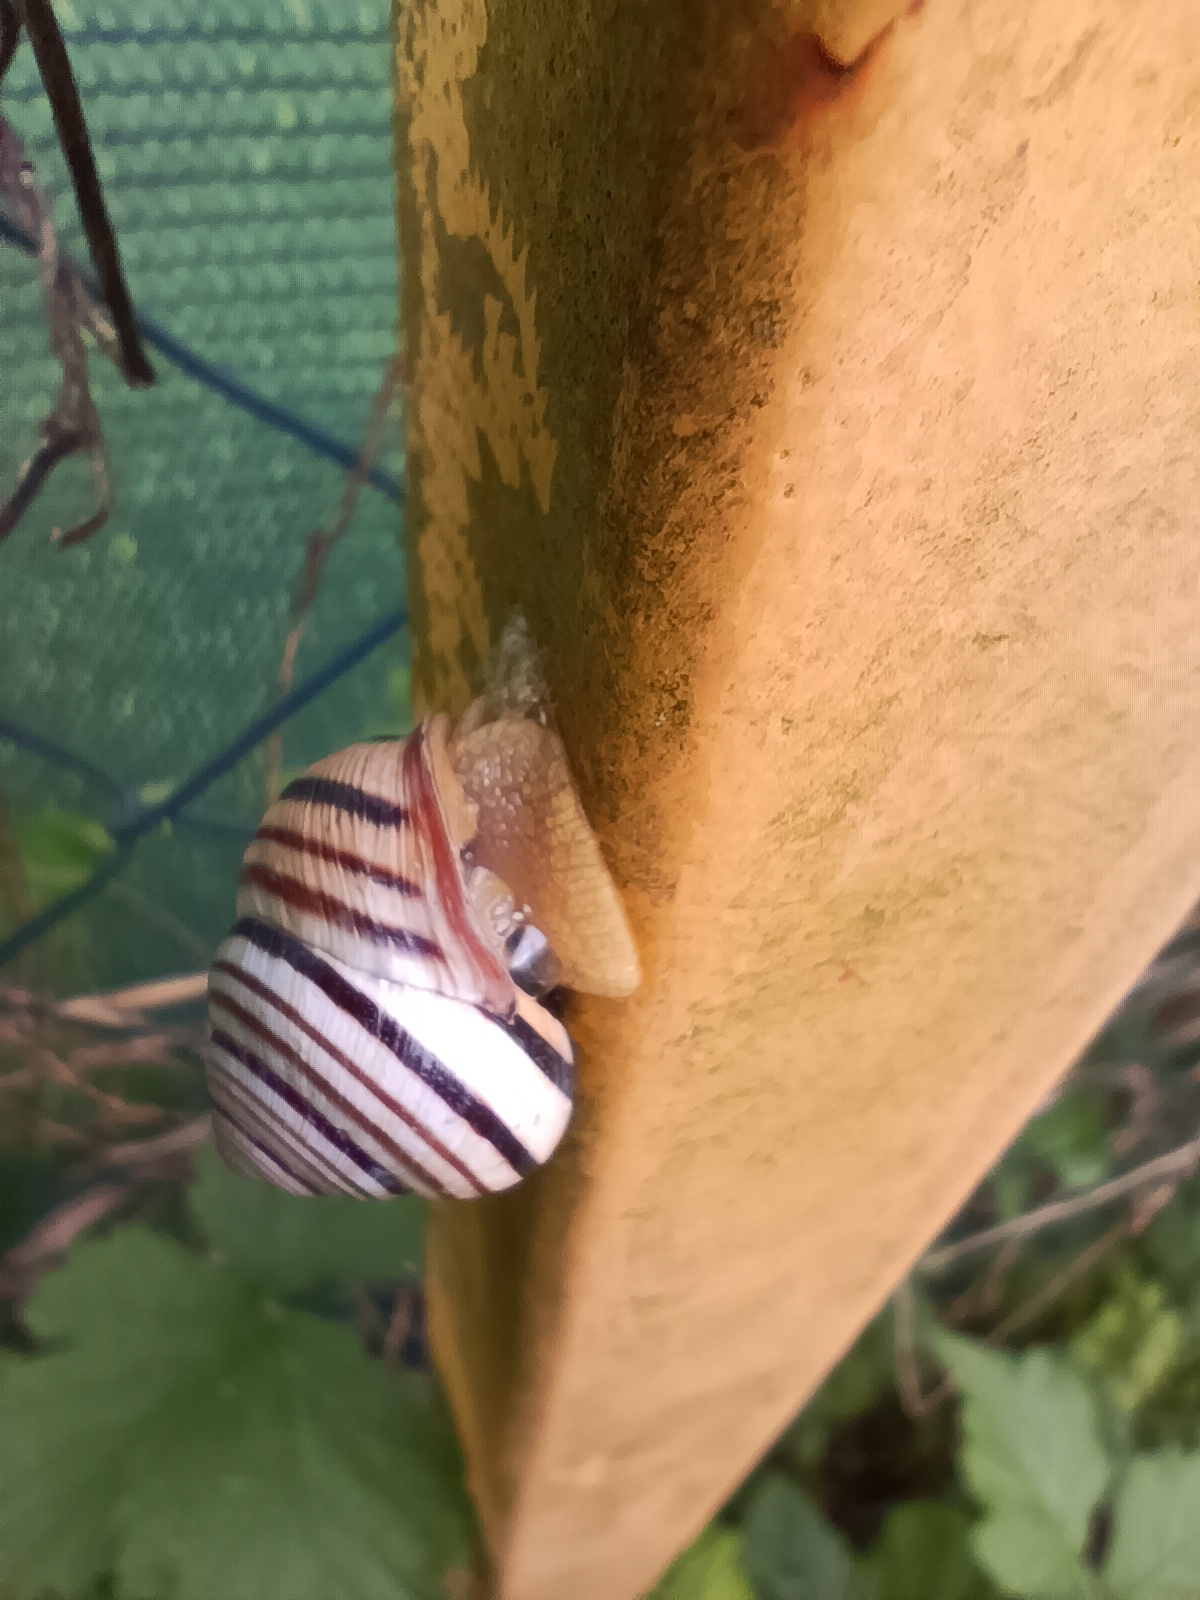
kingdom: Animalia
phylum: Mollusca
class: Gastropoda
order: Stylommatophora
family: Helicidae
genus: Caucasotachea
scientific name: Caucasotachea vindobonensis
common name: European helicid land snail
